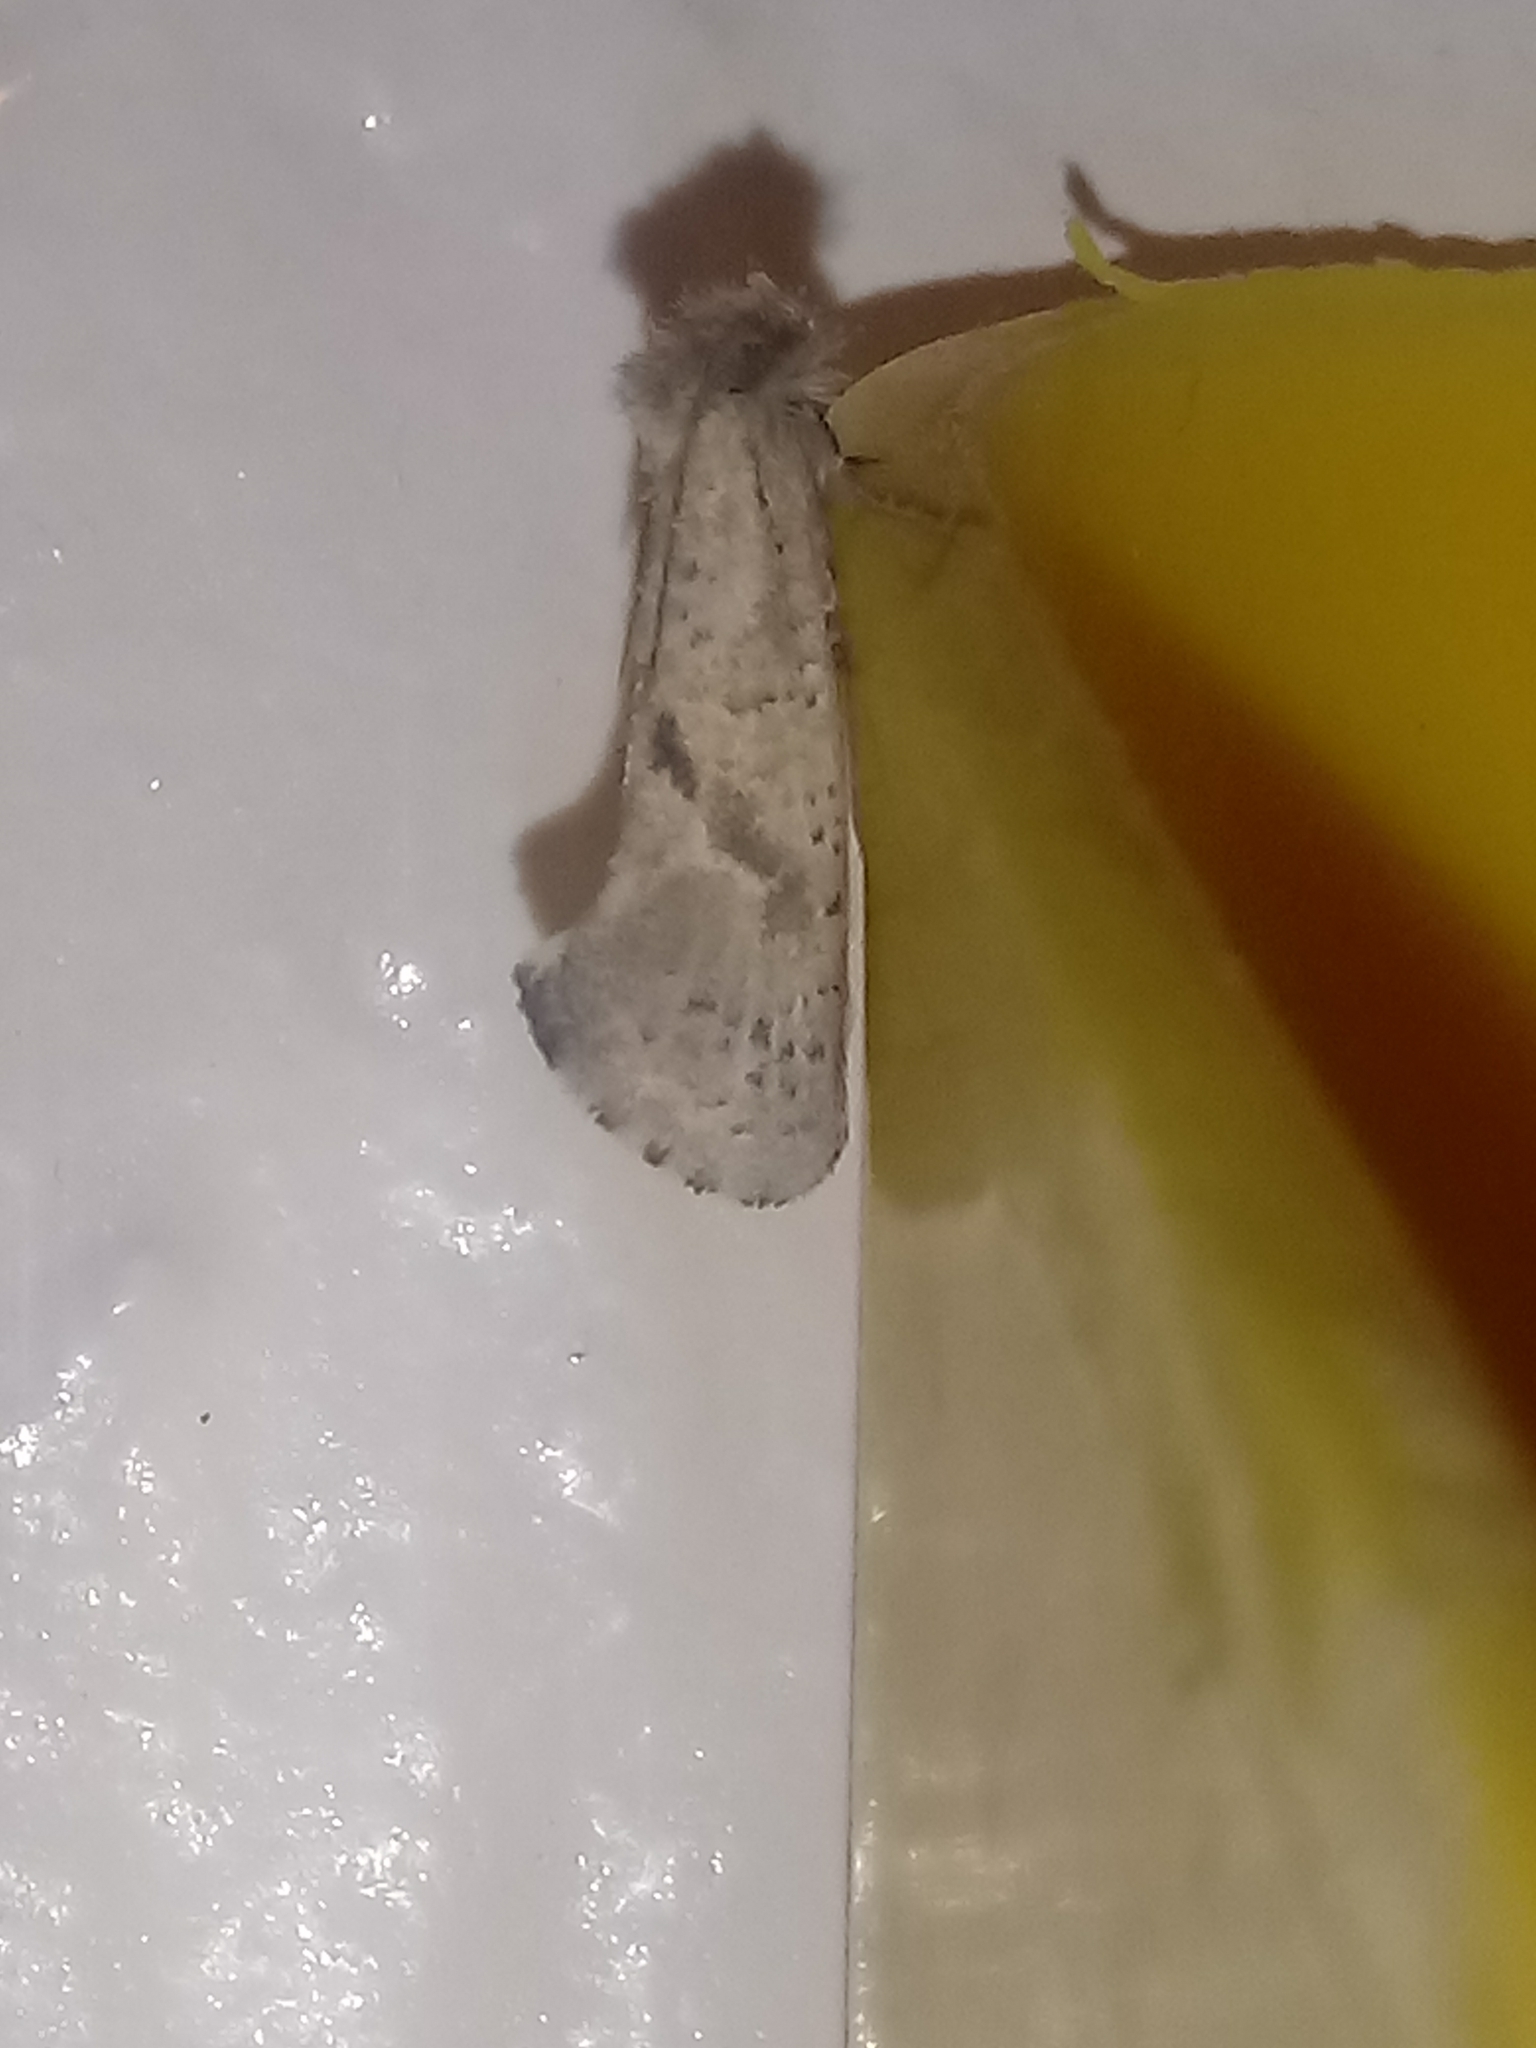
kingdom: Animalia
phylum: Arthropoda
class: Insecta
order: Lepidoptera
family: Tineidae
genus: Acrolophus
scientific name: Acrolophus kearfotti
